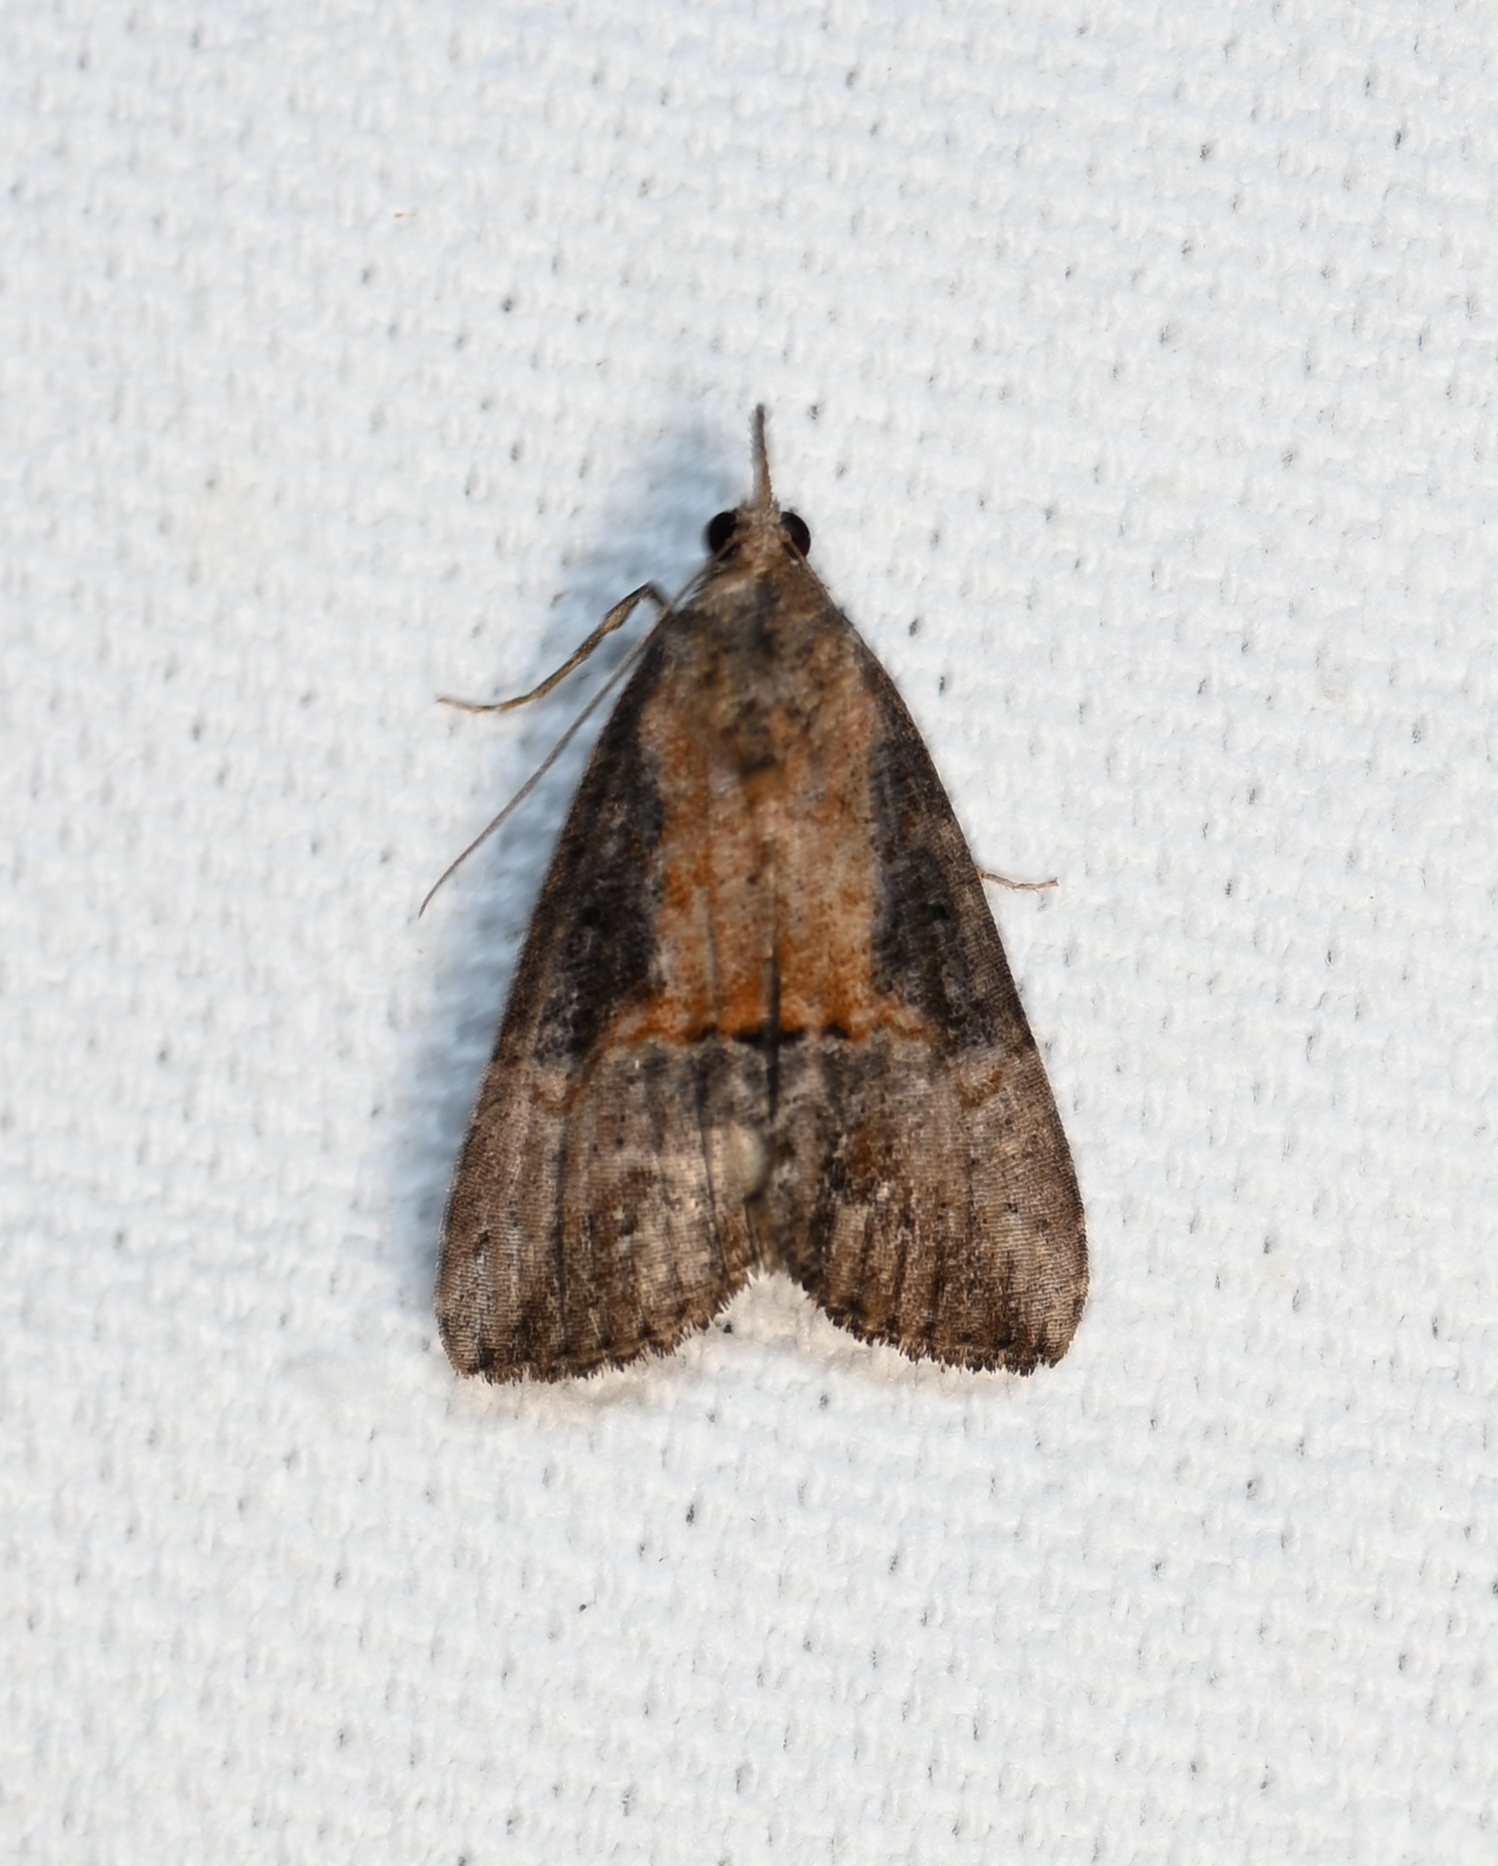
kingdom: Animalia
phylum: Arthropoda
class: Insecta
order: Lepidoptera
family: Erebidae
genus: Hypena
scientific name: Hypena scabra
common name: Green cloverworm
